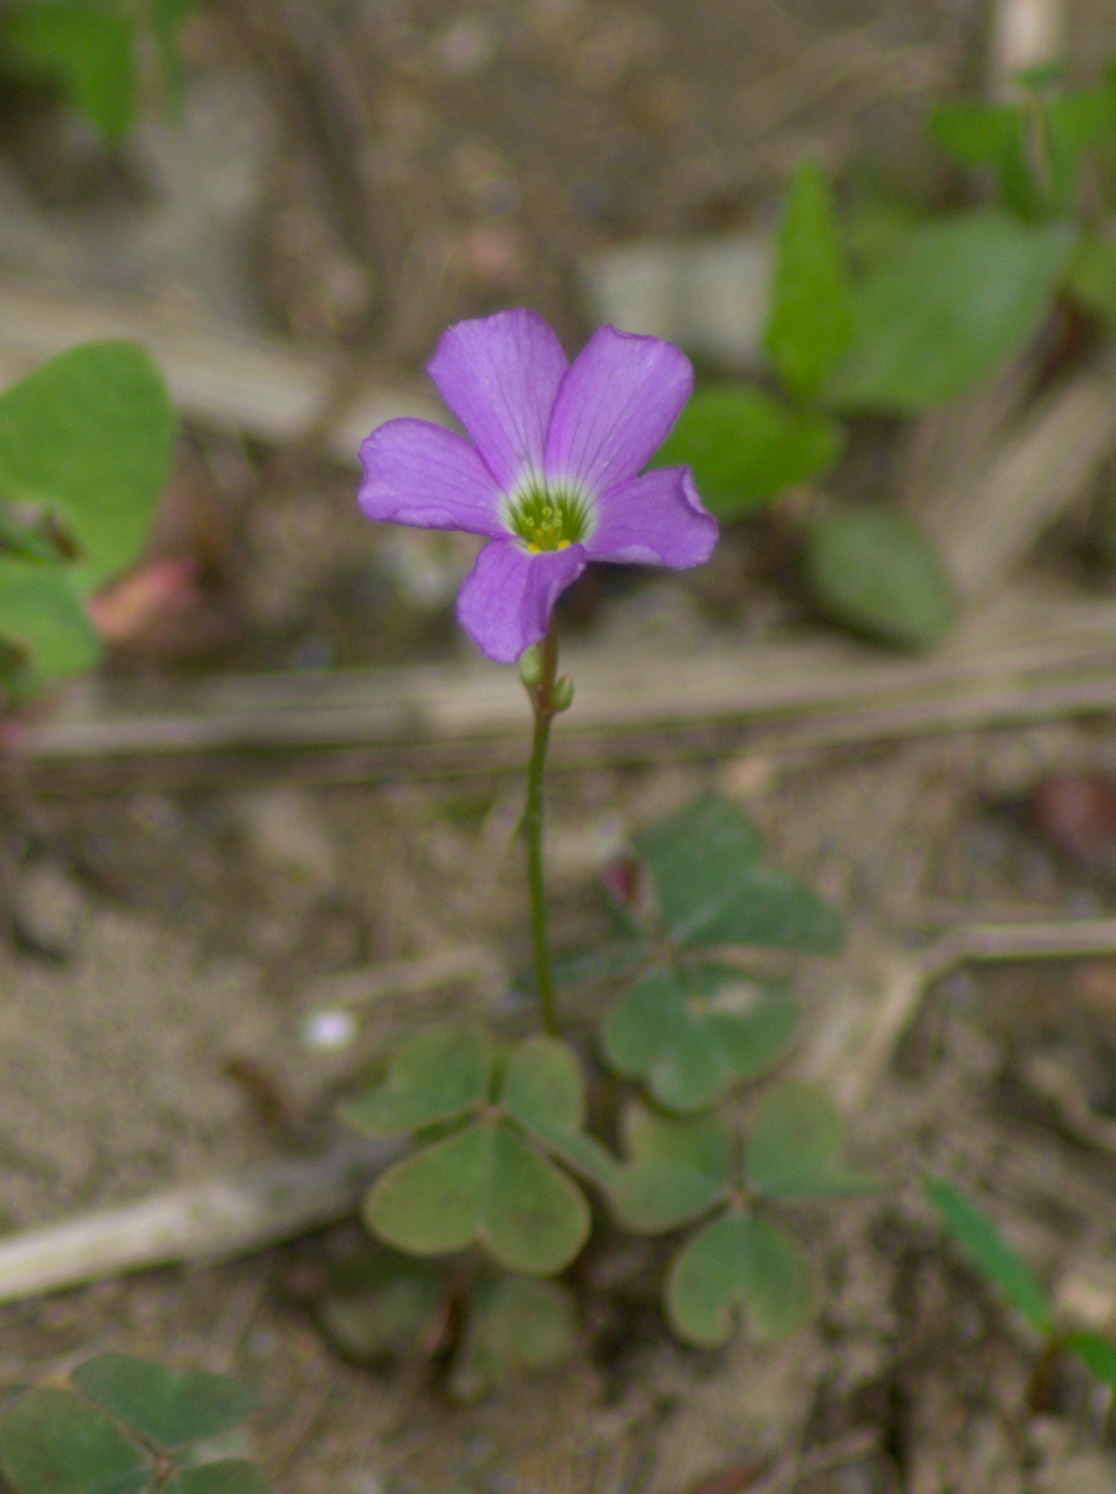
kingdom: Plantae
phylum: Tracheophyta
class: Magnoliopsida
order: Oxalidales
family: Oxalidaceae
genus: Oxalis
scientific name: Oxalis violacea
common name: Violet wood-sorrel
